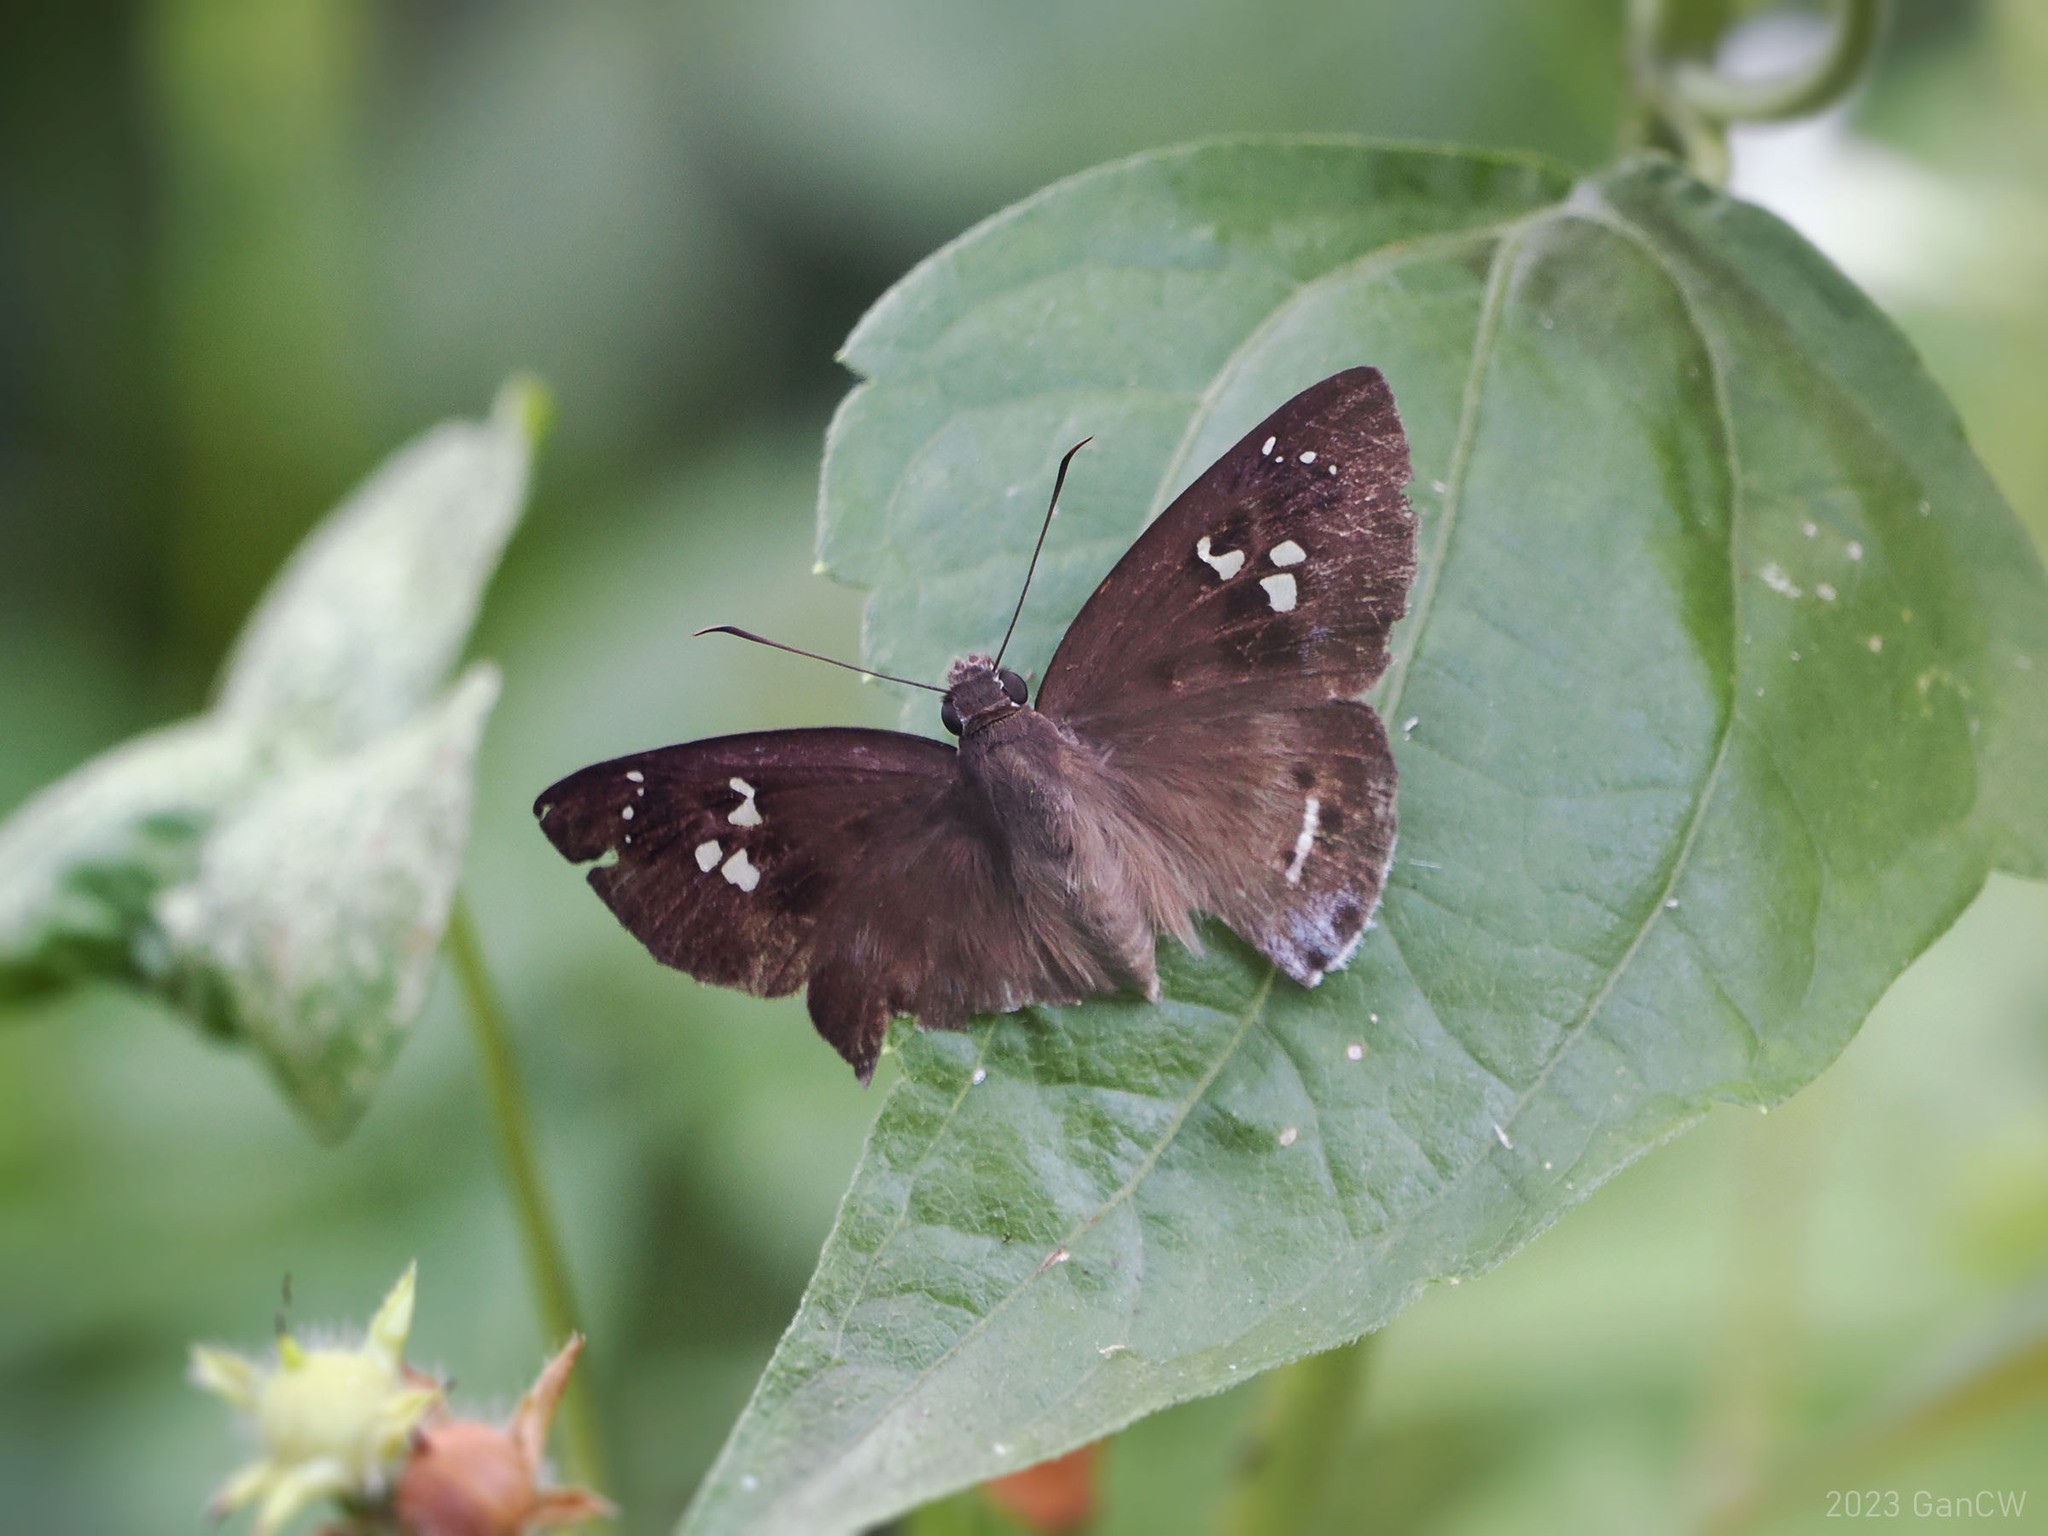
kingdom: Animalia
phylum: Arthropoda
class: Insecta
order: Lepidoptera
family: Hesperiidae
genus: Tagiades
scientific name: Tagiades japetus
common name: Pied flat
